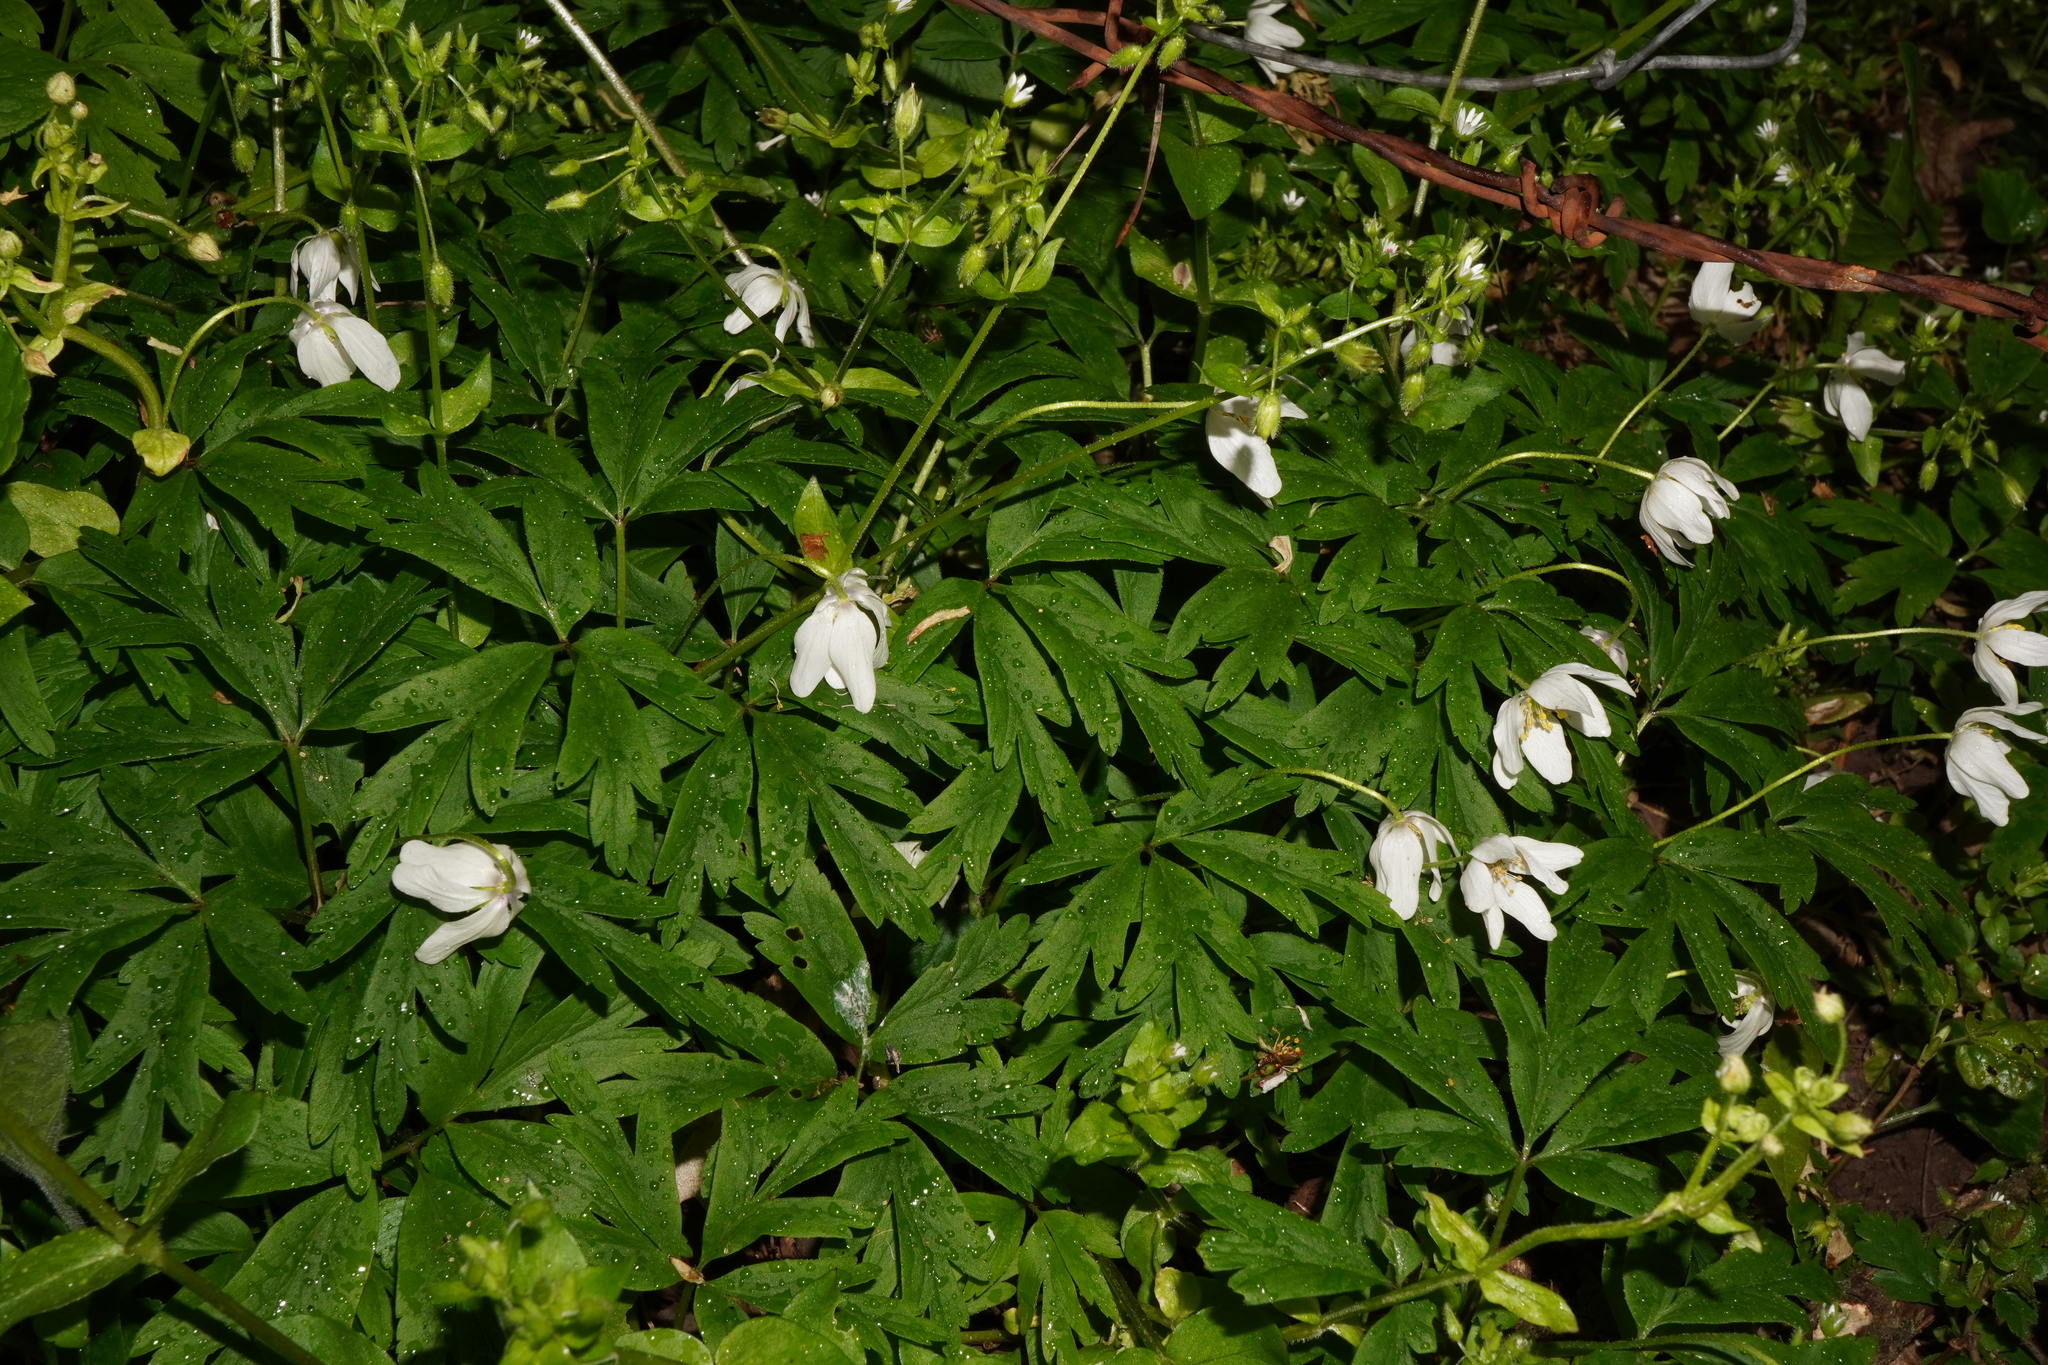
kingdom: Plantae
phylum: Tracheophyta
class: Magnoliopsida
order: Ranunculales
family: Ranunculaceae
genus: Anemone
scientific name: Anemone nemorosa
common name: Wood anemone
